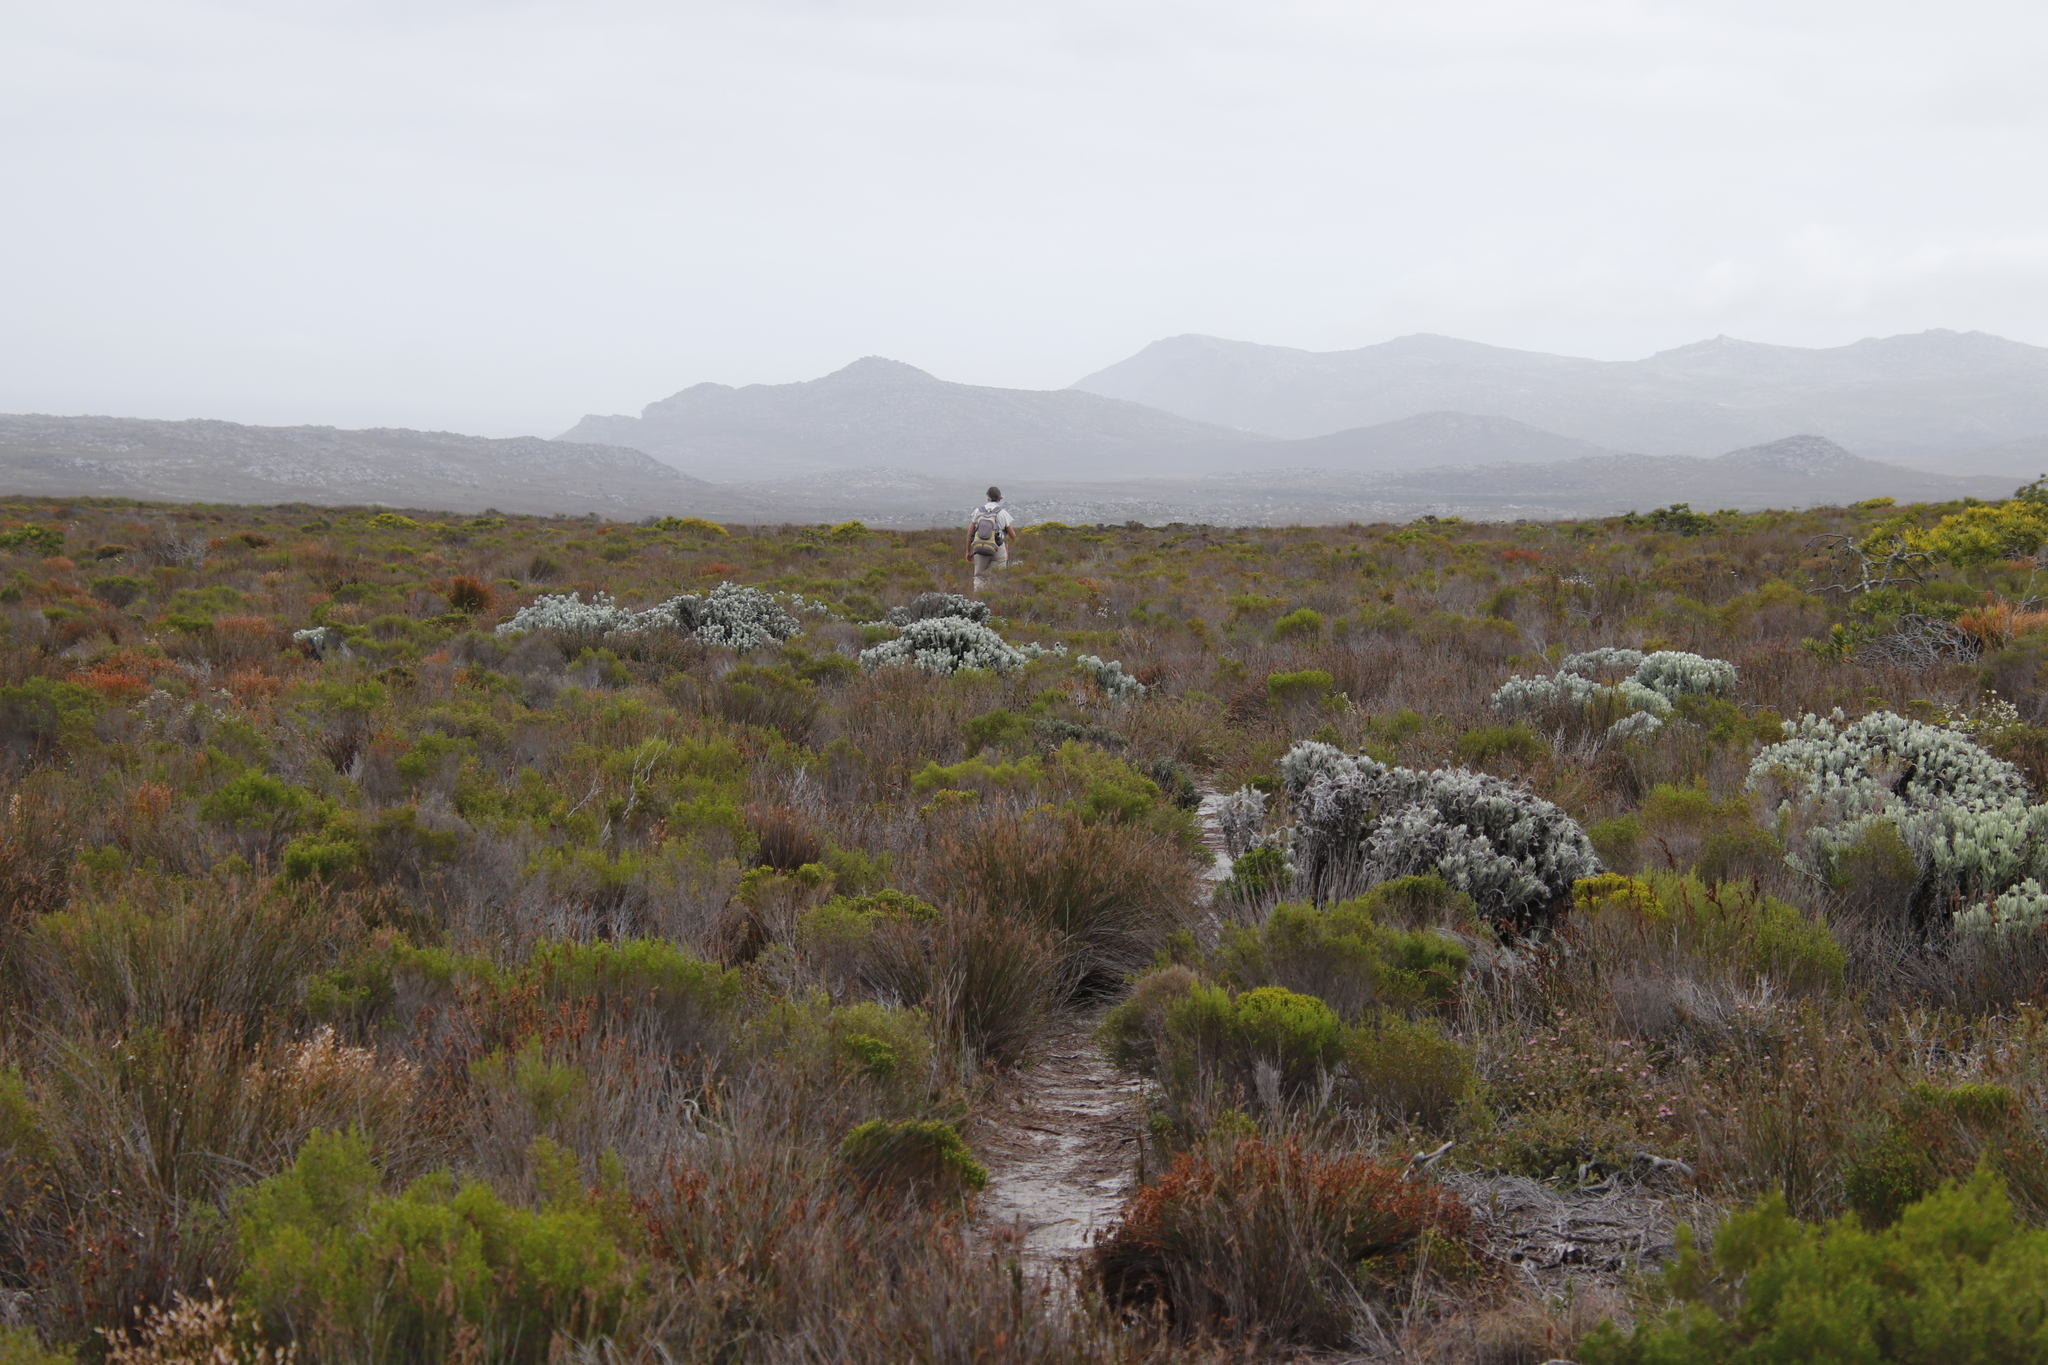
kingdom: Plantae
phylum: Tracheophyta
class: Magnoliopsida
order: Asterales
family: Asteraceae
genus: Syncarpha
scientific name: Syncarpha vestita
